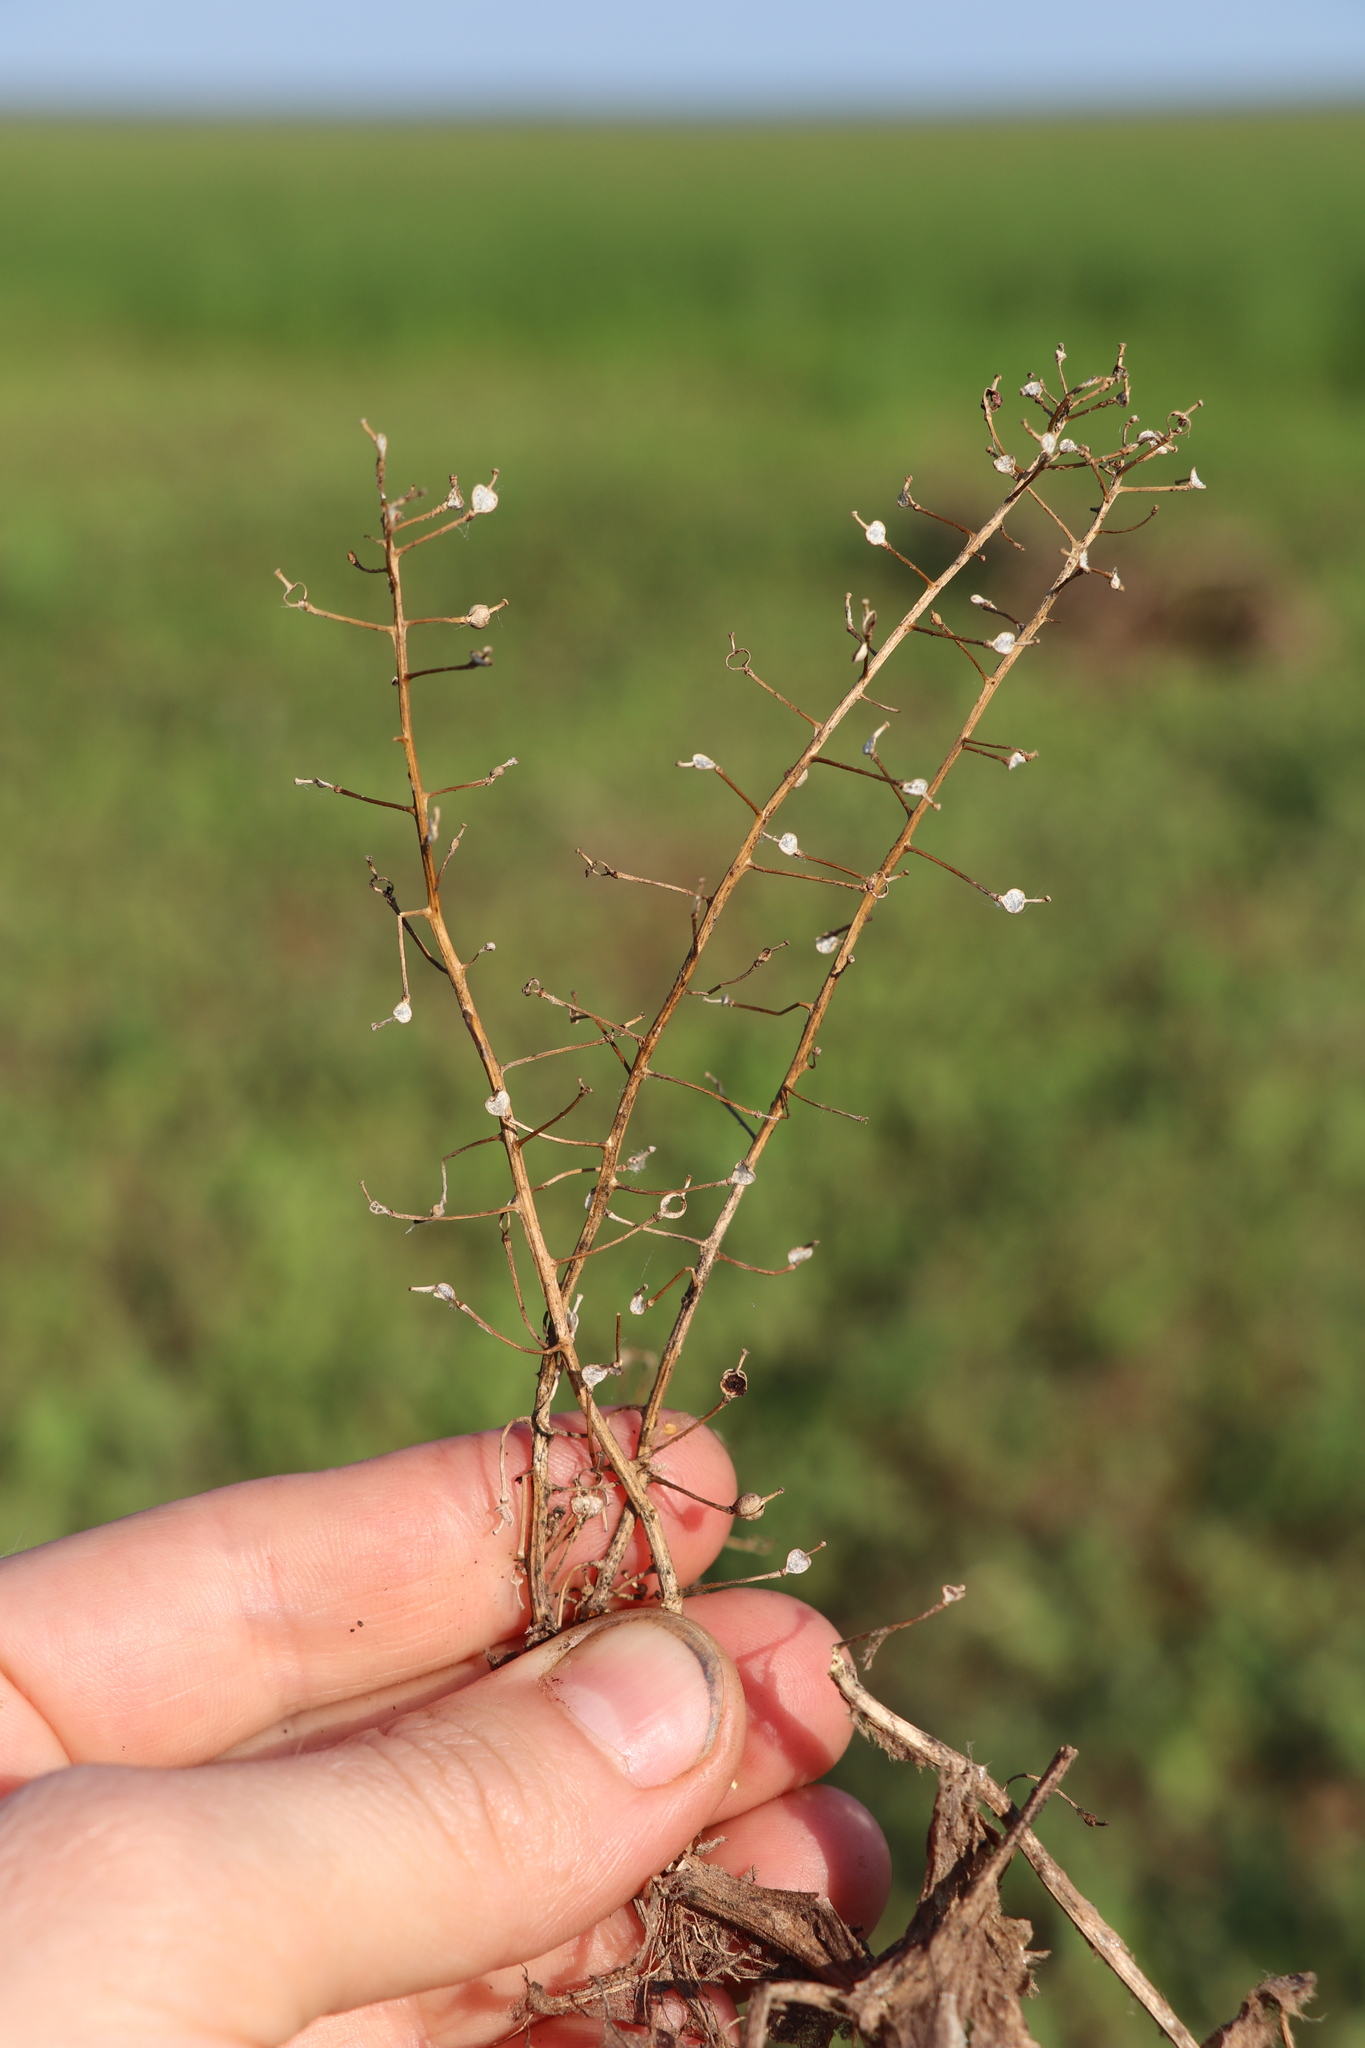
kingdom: Plantae
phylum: Tracheophyta
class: Magnoliopsida
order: Brassicales
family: Brassicaceae
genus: Rorippa
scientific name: Rorippa amphibia
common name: Great yellow-cress
